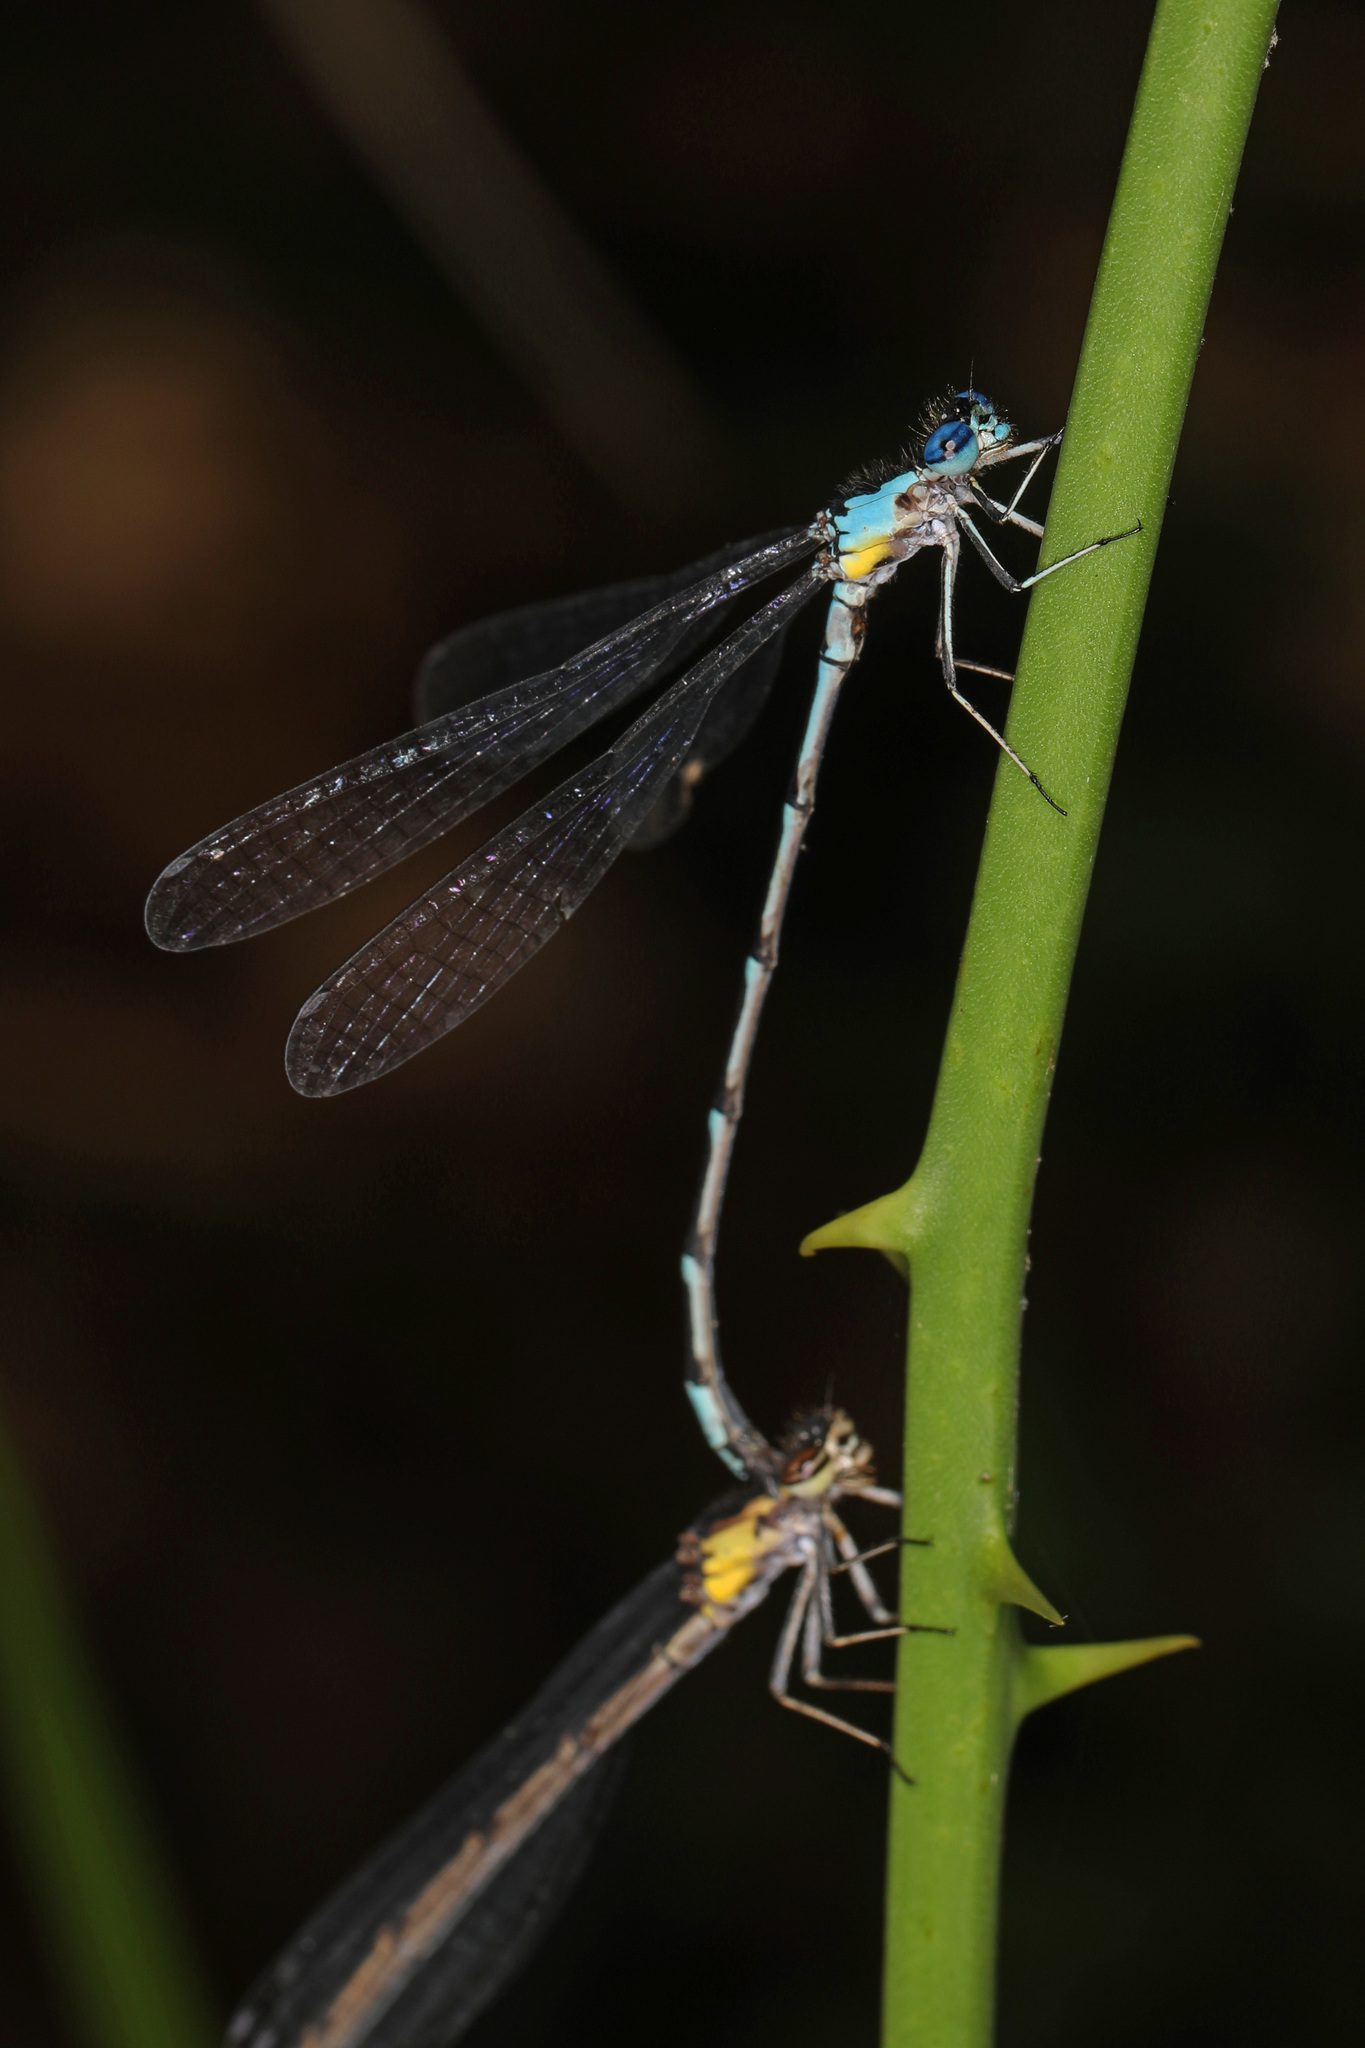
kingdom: Animalia
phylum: Arthropoda
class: Insecta
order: Odonata
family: Coenagrionidae
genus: Chromagrion
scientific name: Chromagrion conditum
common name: Aurora damsel
